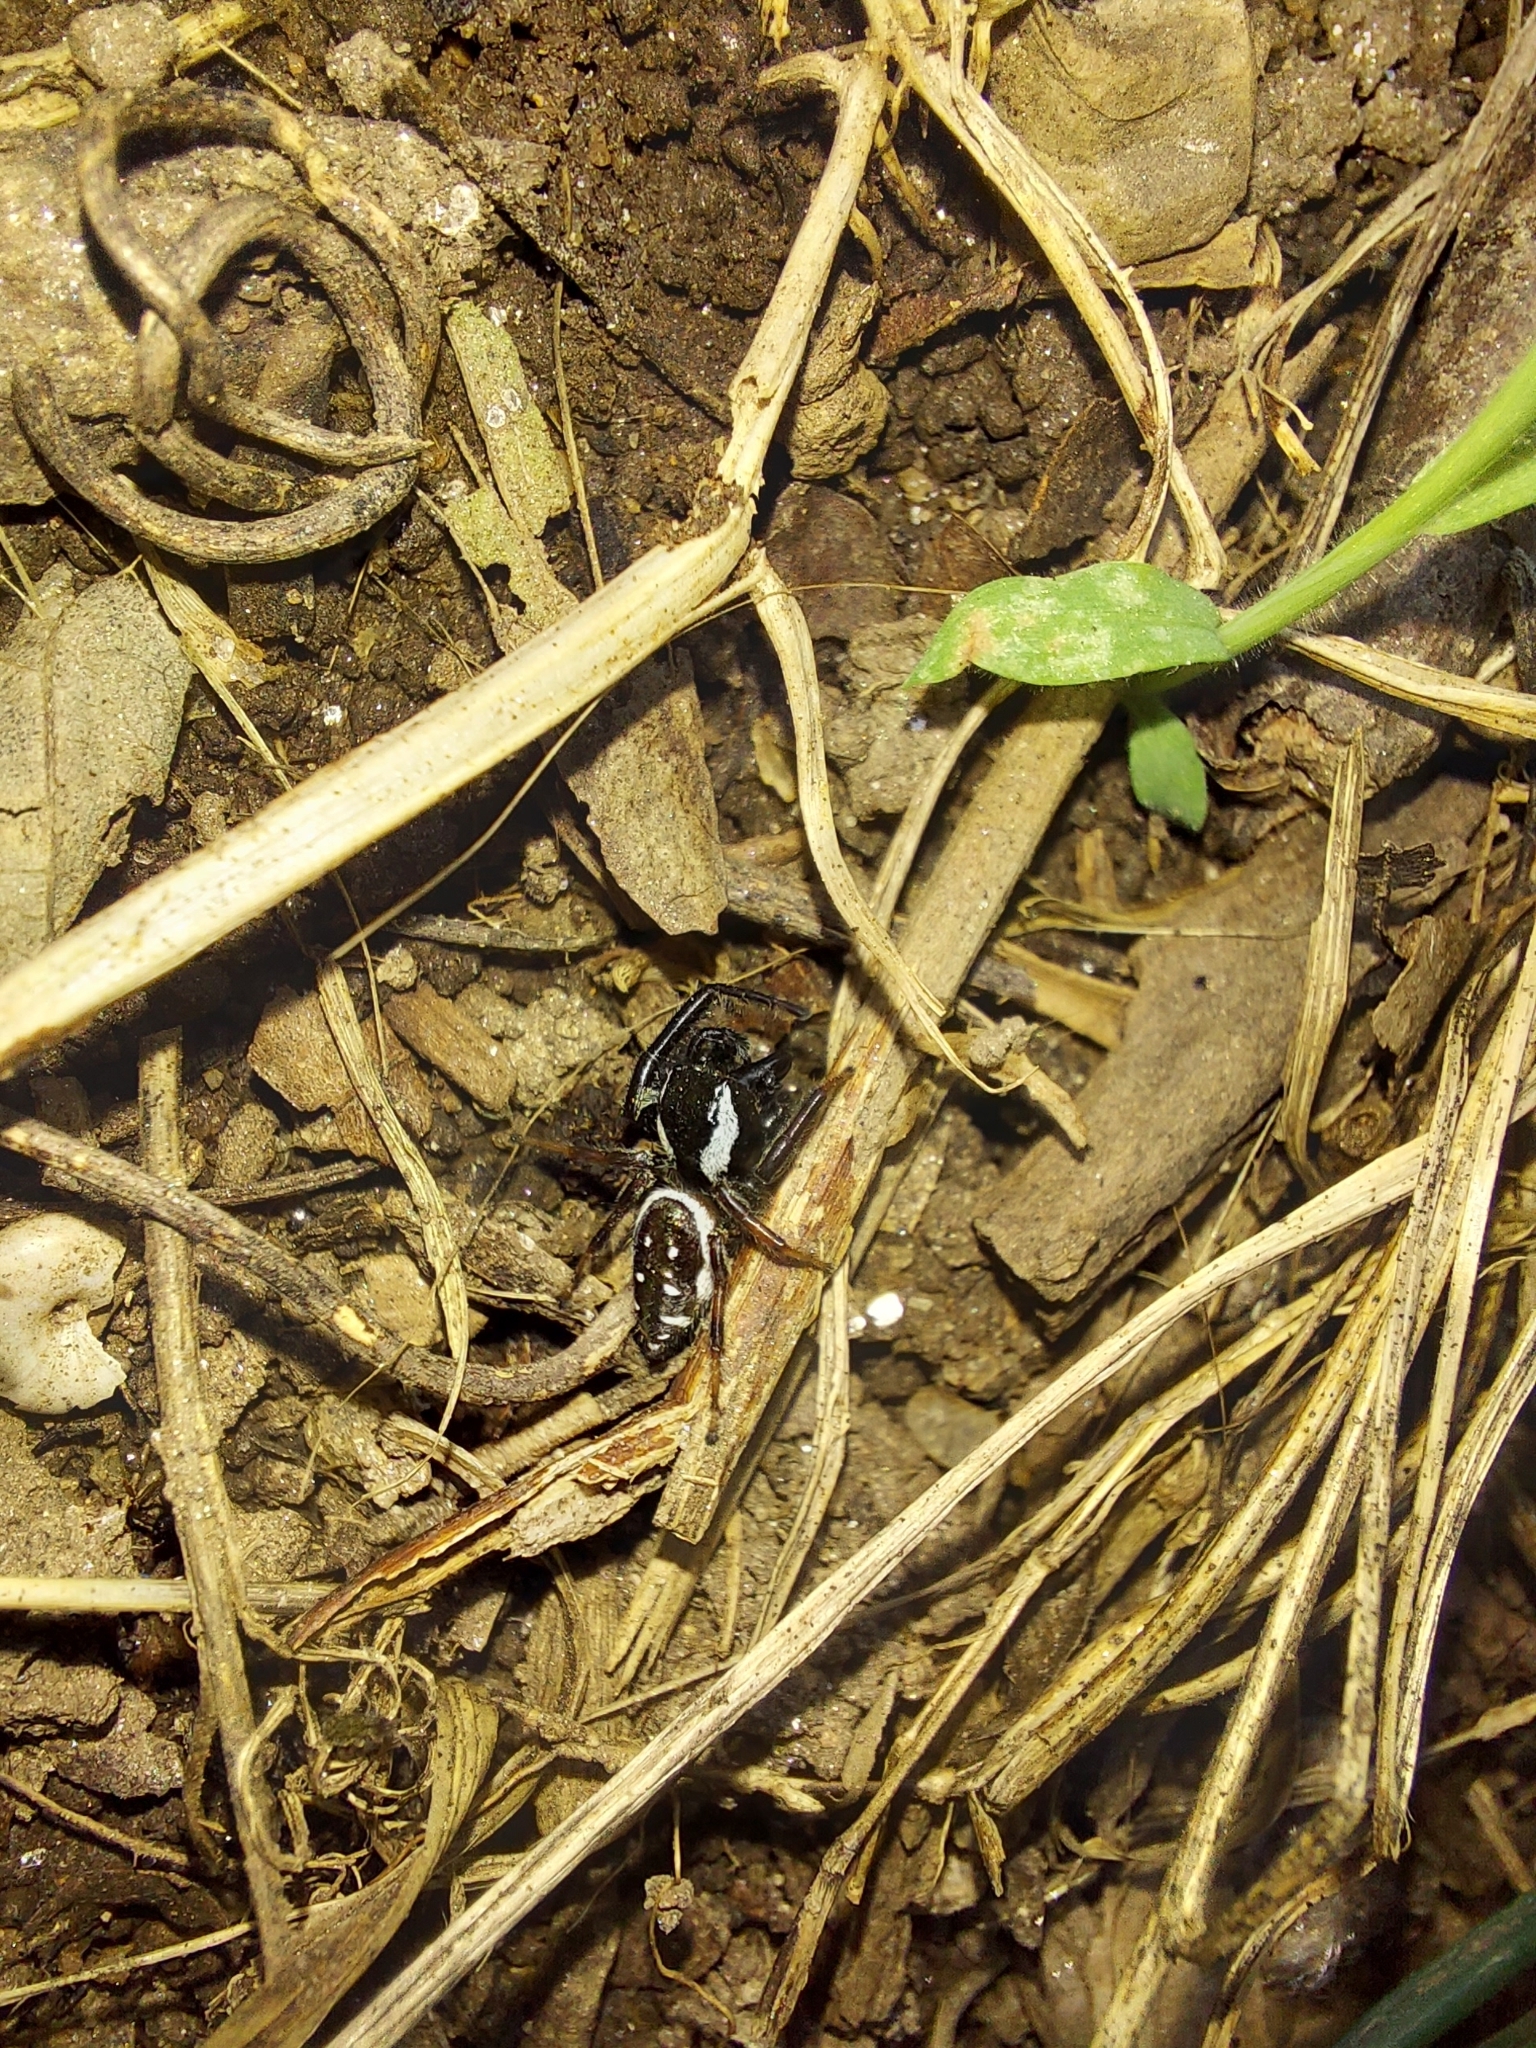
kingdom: Animalia
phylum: Arthropoda
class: Arachnida
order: Araneae
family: Salticidae
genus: Paraphidippus
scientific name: Paraphidippus aurantius
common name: Jumping spiders
